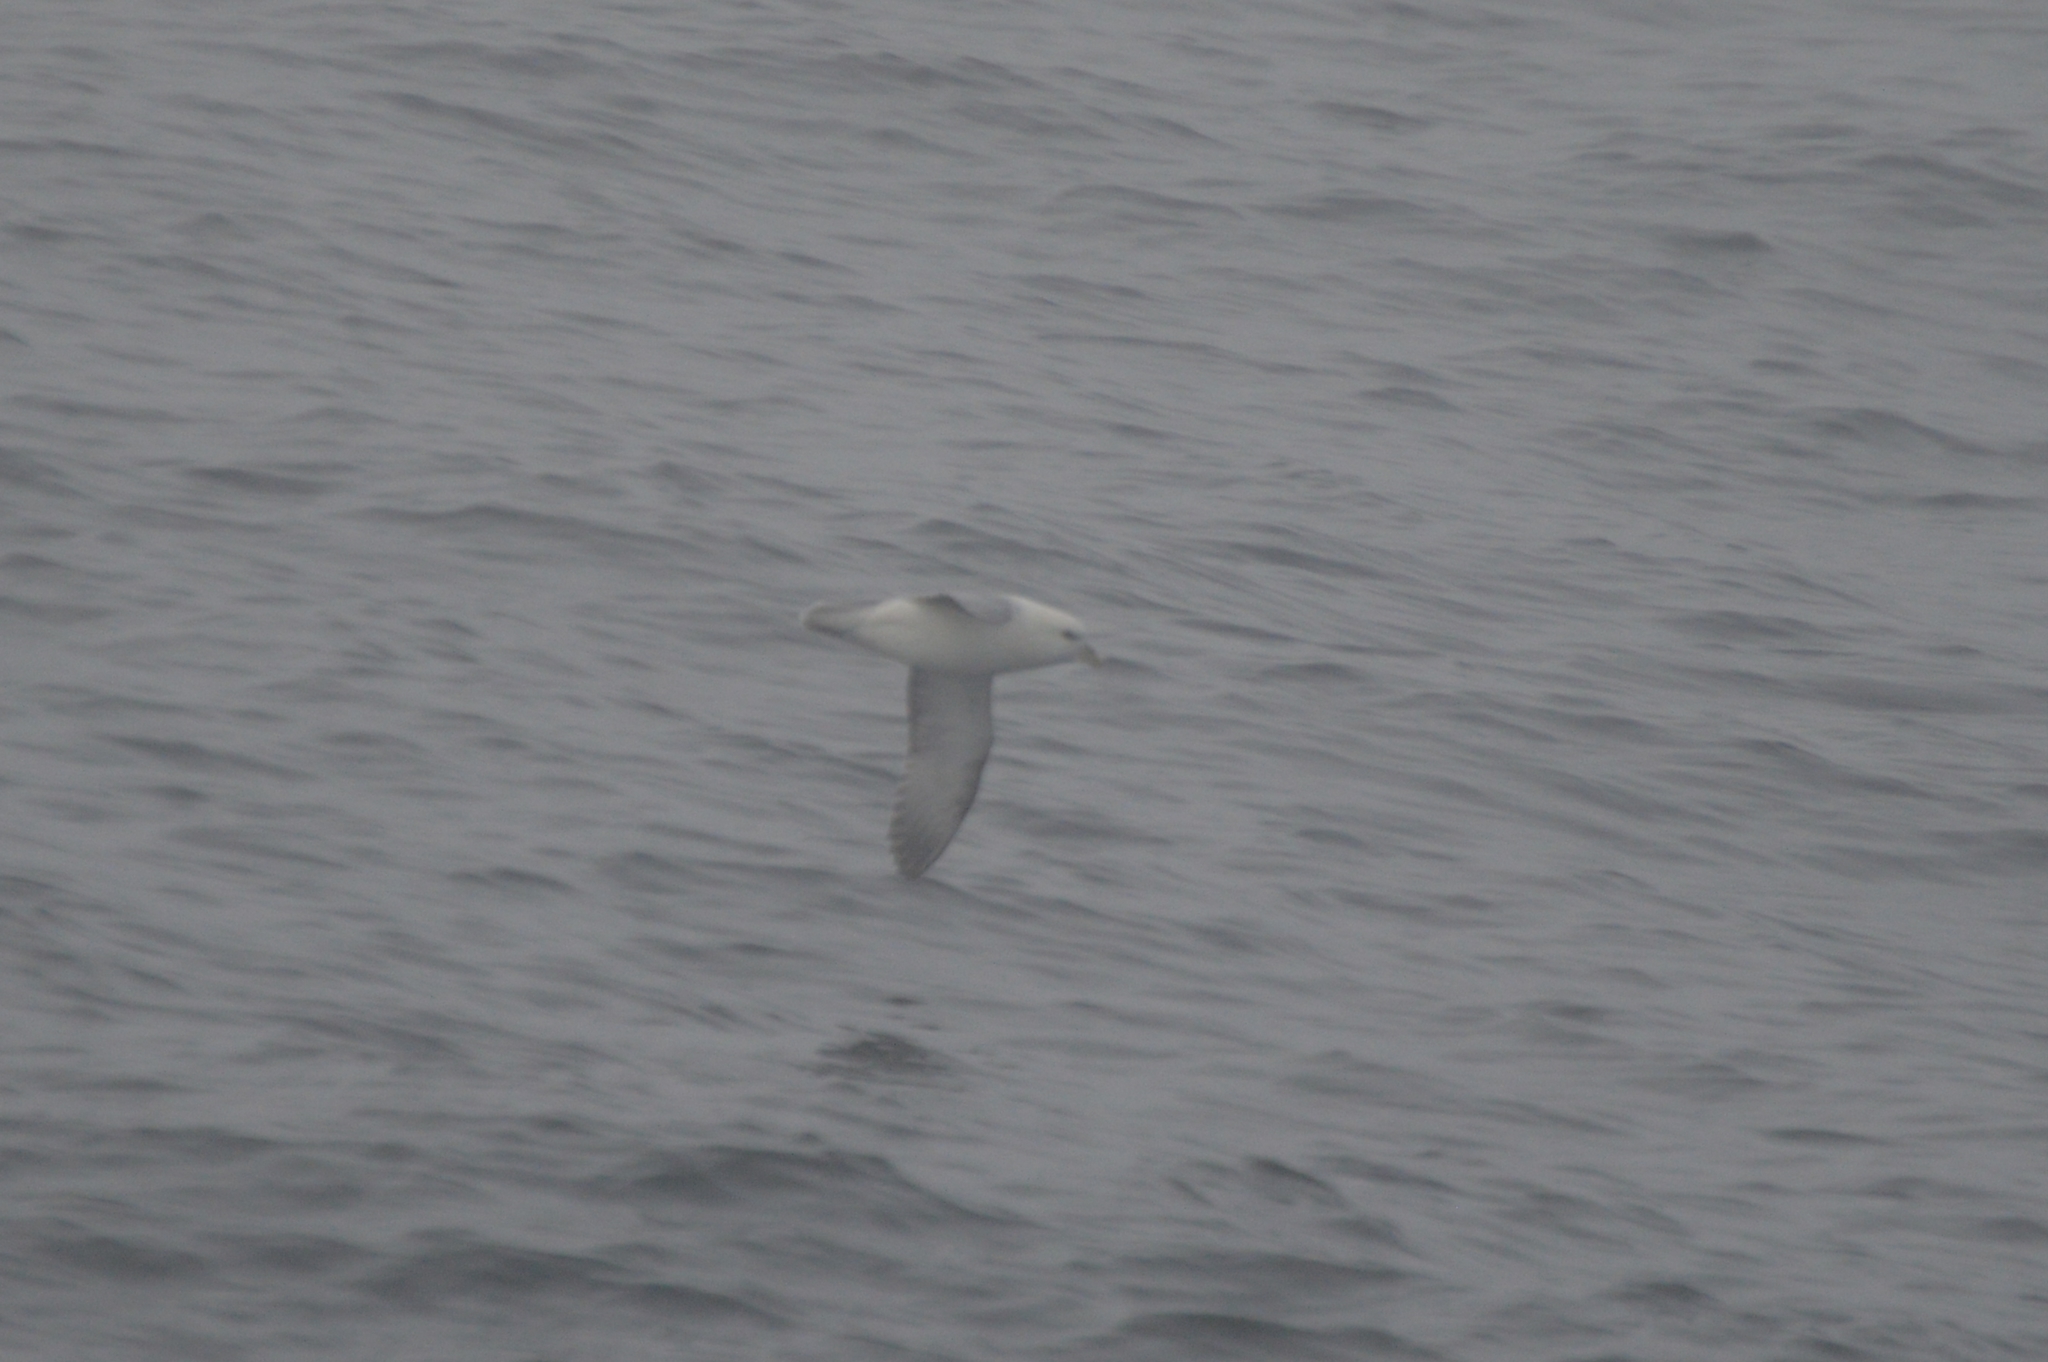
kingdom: Animalia
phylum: Chordata
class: Aves
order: Procellariiformes
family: Procellariidae
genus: Fulmarus
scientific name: Fulmarus glacialis
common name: Northern fulmar
